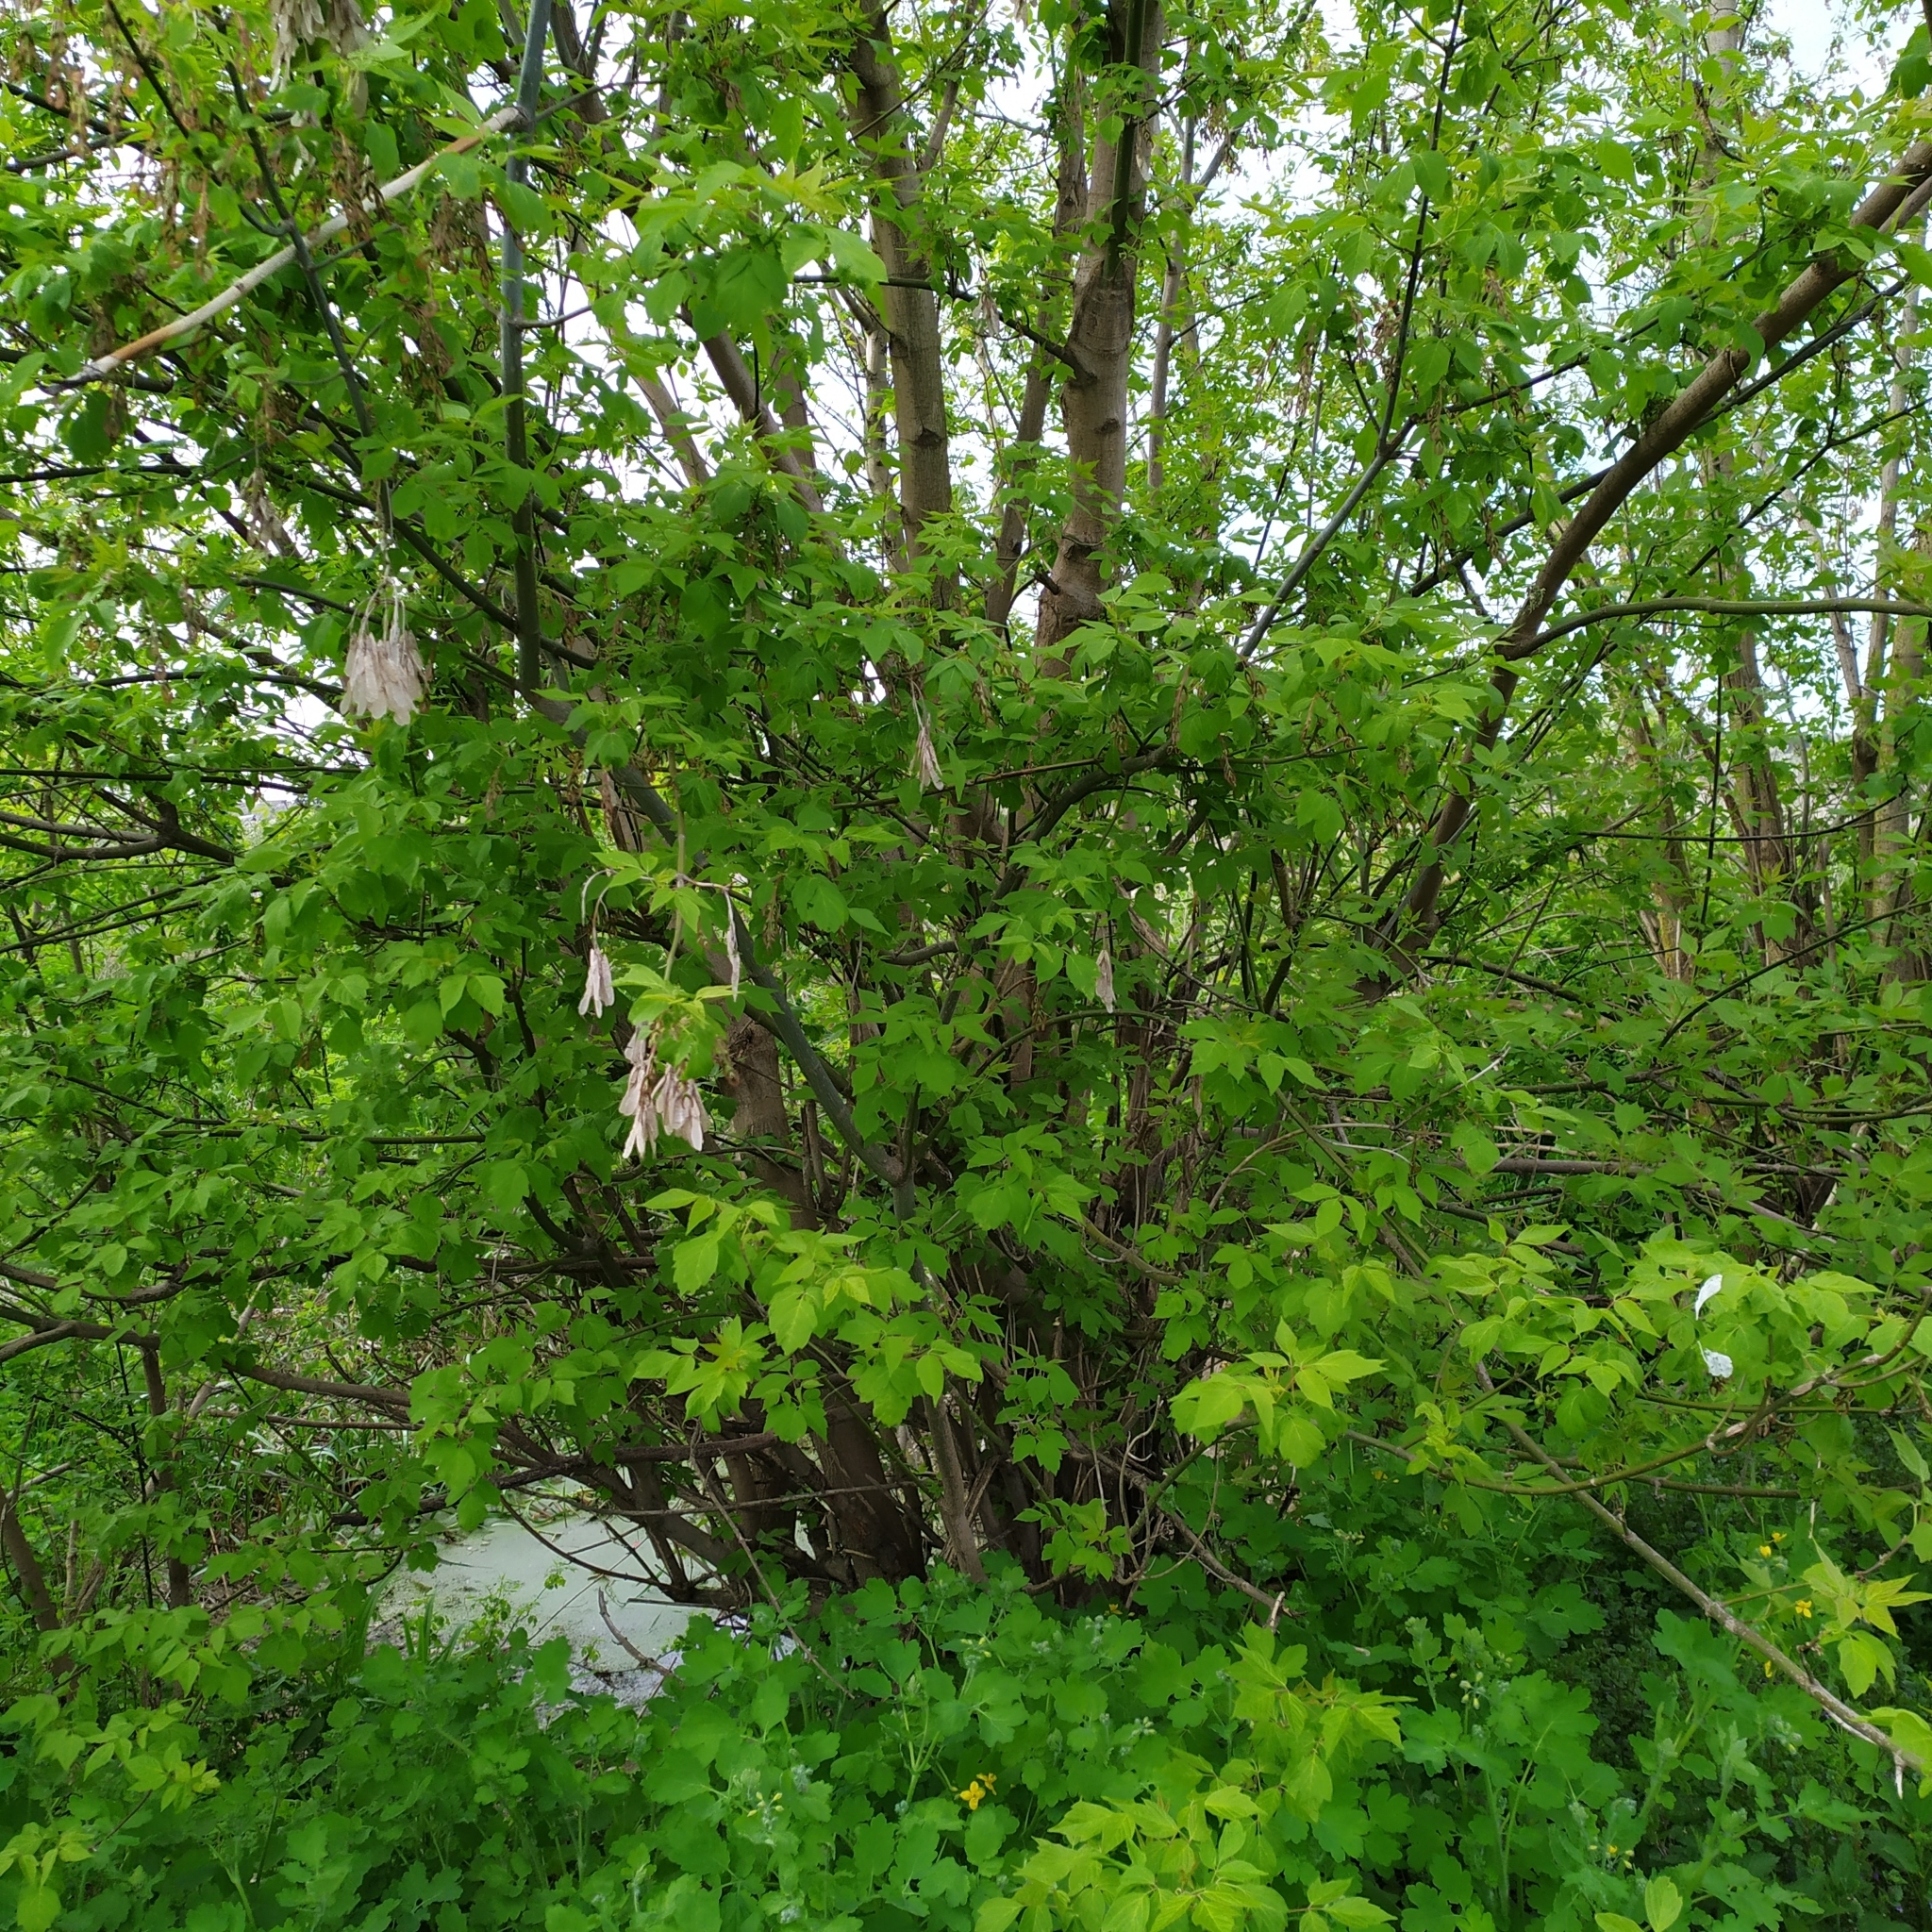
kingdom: Plantae
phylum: Tracheophyta
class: Magnoliopsida
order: Sapindales
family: Sapindaceae
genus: Acer
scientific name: Acer negundo
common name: Ashleaf maple
